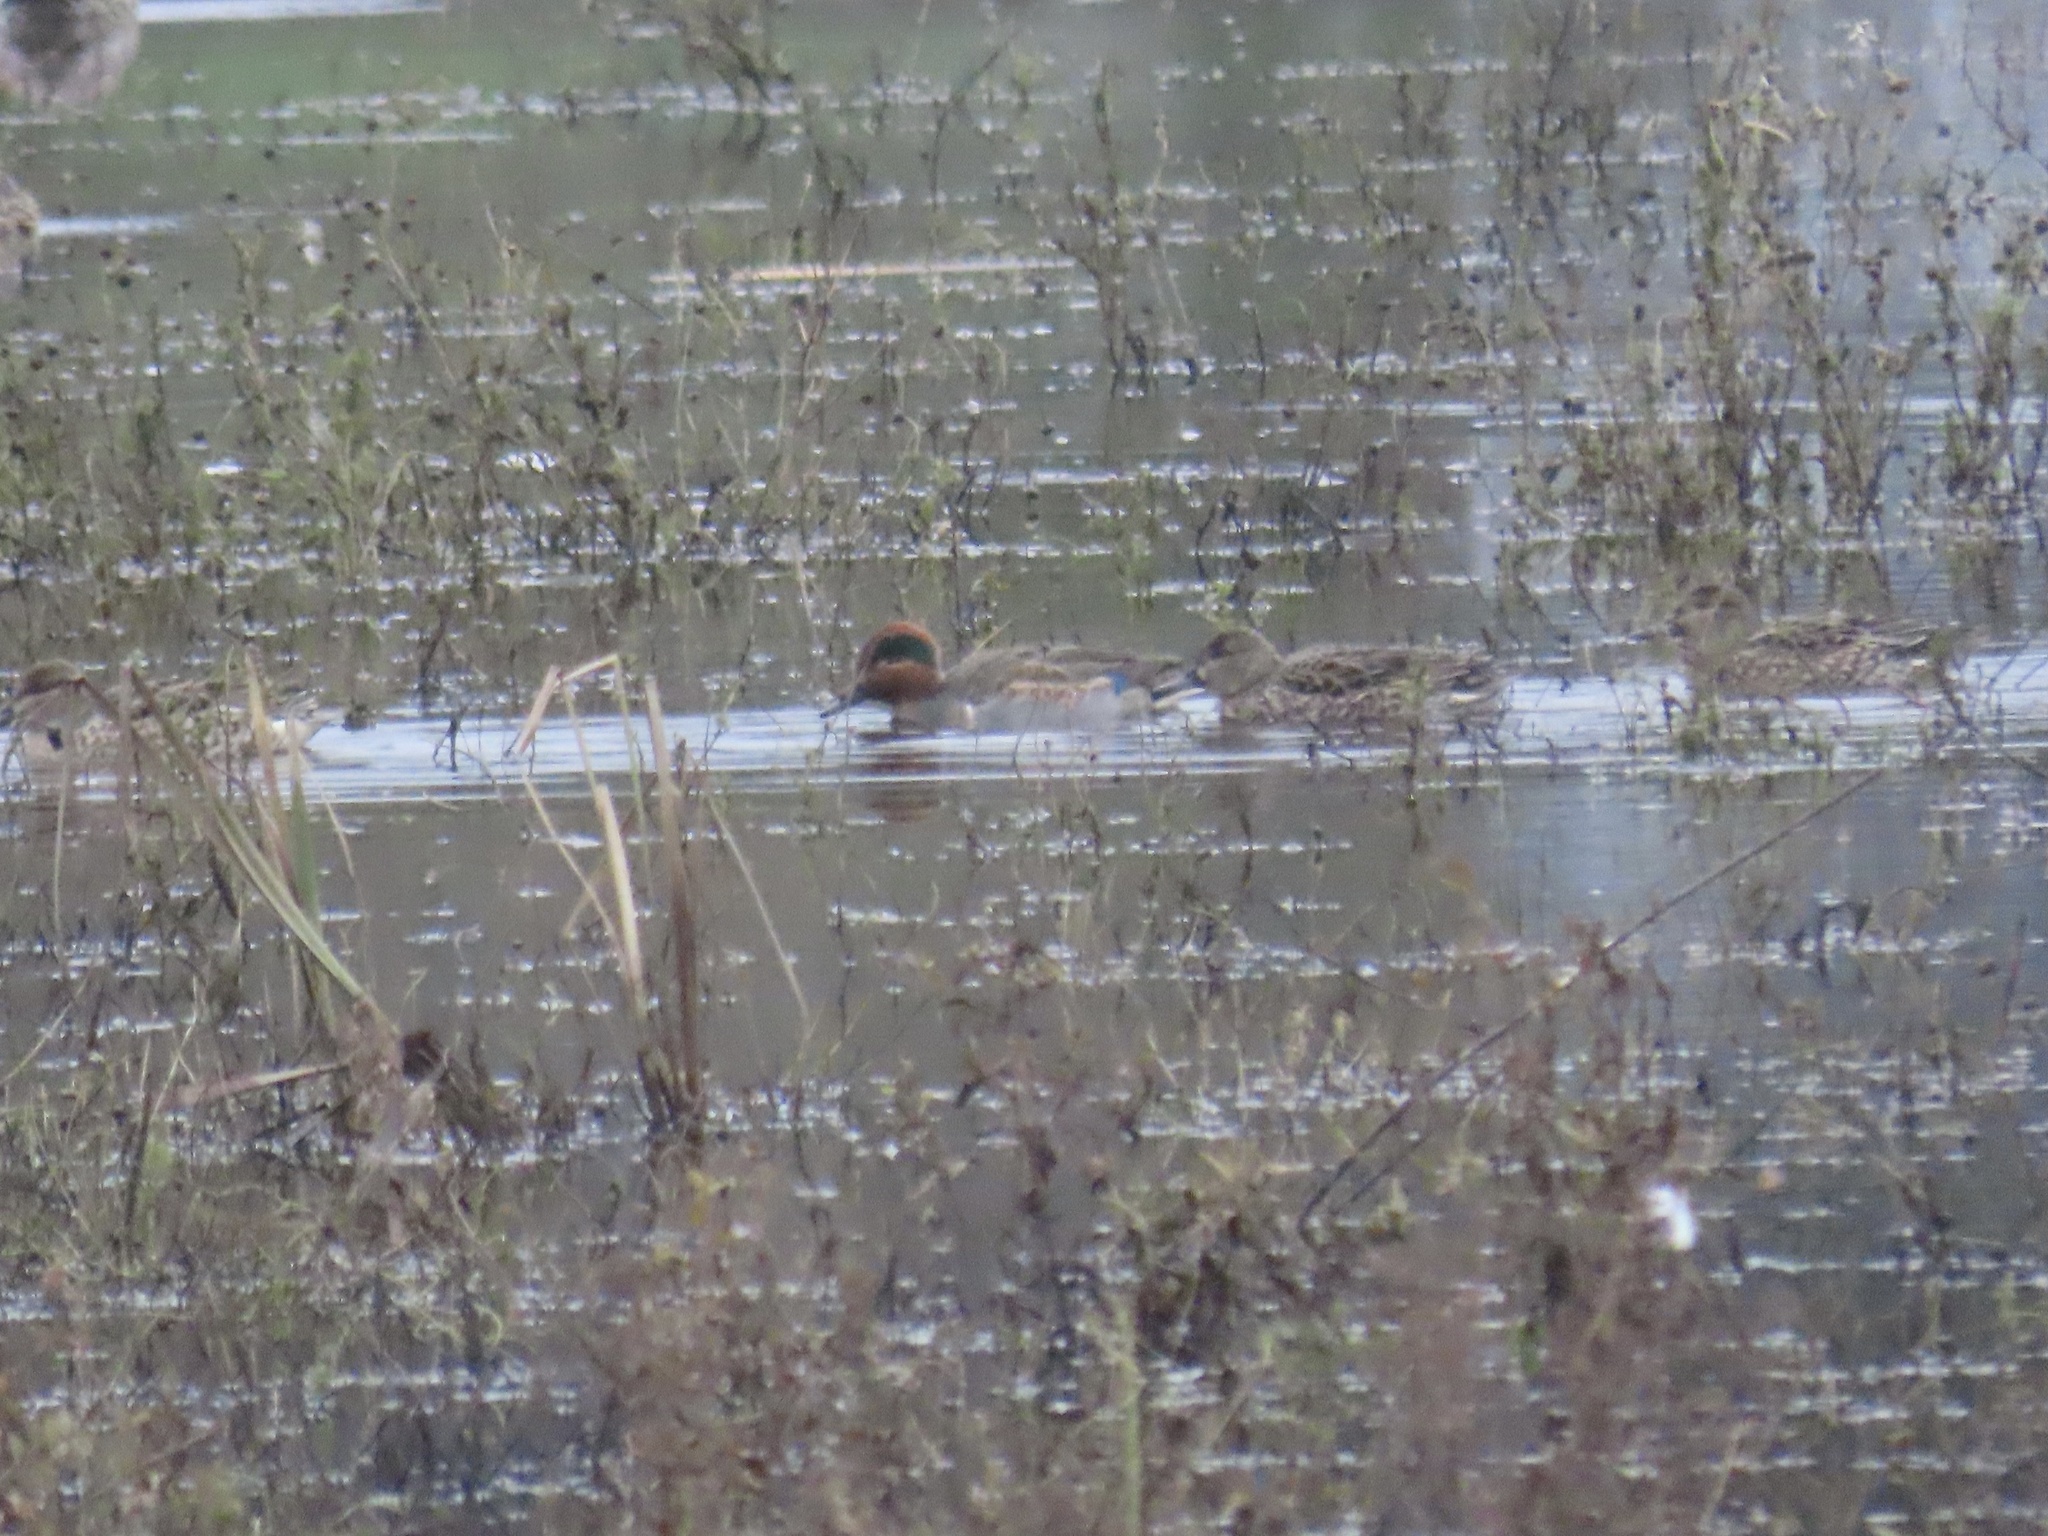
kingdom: Animalia
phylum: Chordata
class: Aves
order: Anseriformes
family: Anatidae
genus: Anas
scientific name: Anas crecca
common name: Eurasian teal
